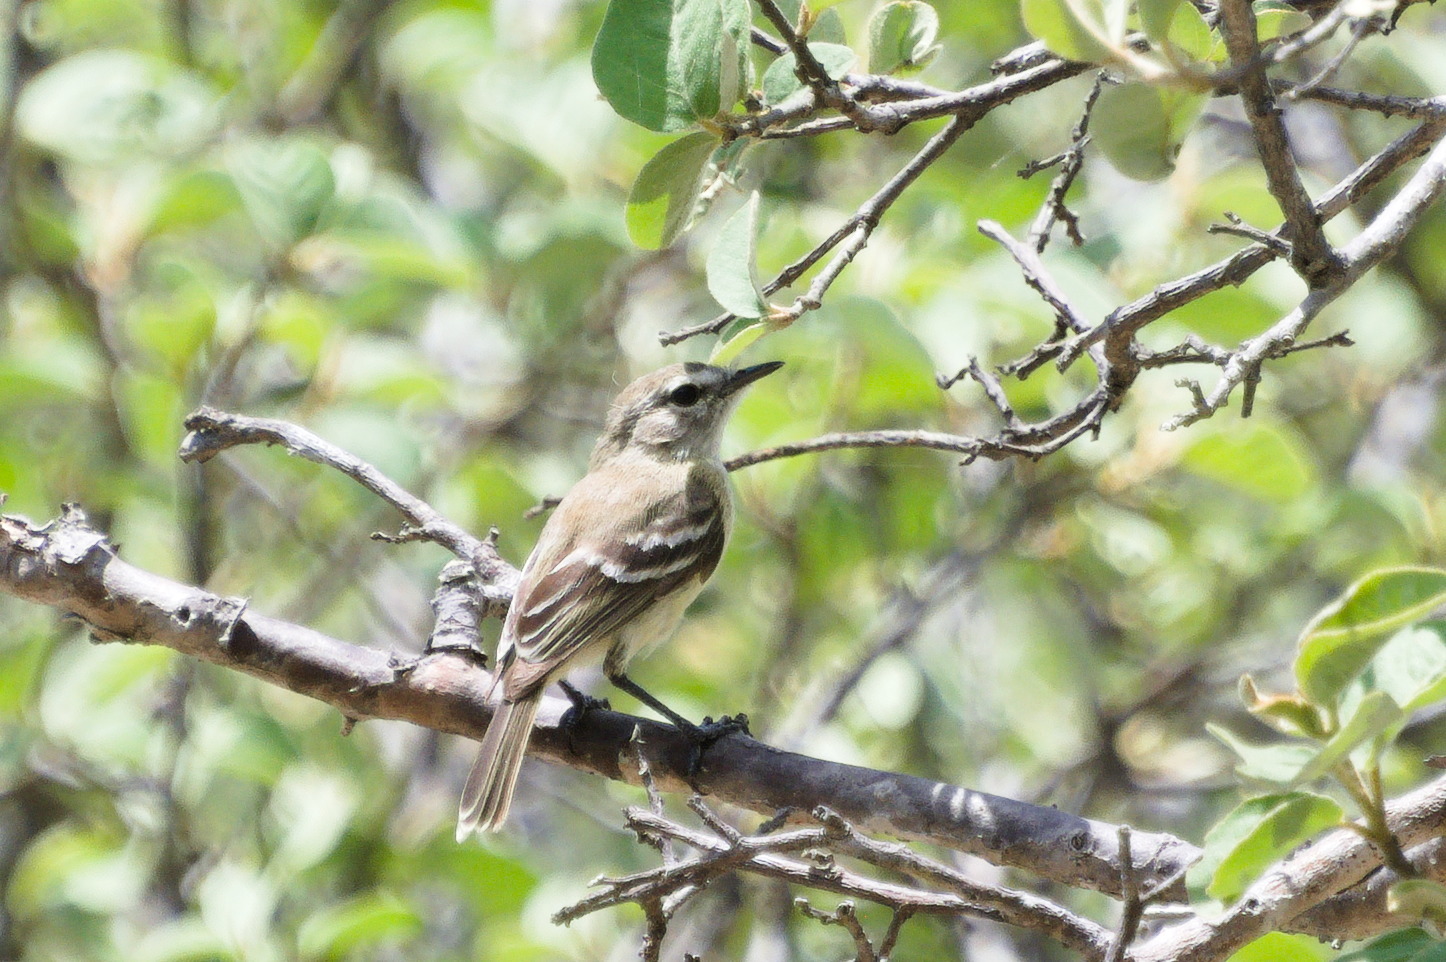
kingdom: Animalia
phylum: Chordata
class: Aves
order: Passeriformes
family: Tyrannidae
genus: Inezia
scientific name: Inezia tenuirostris
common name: Slender-billed inezia
